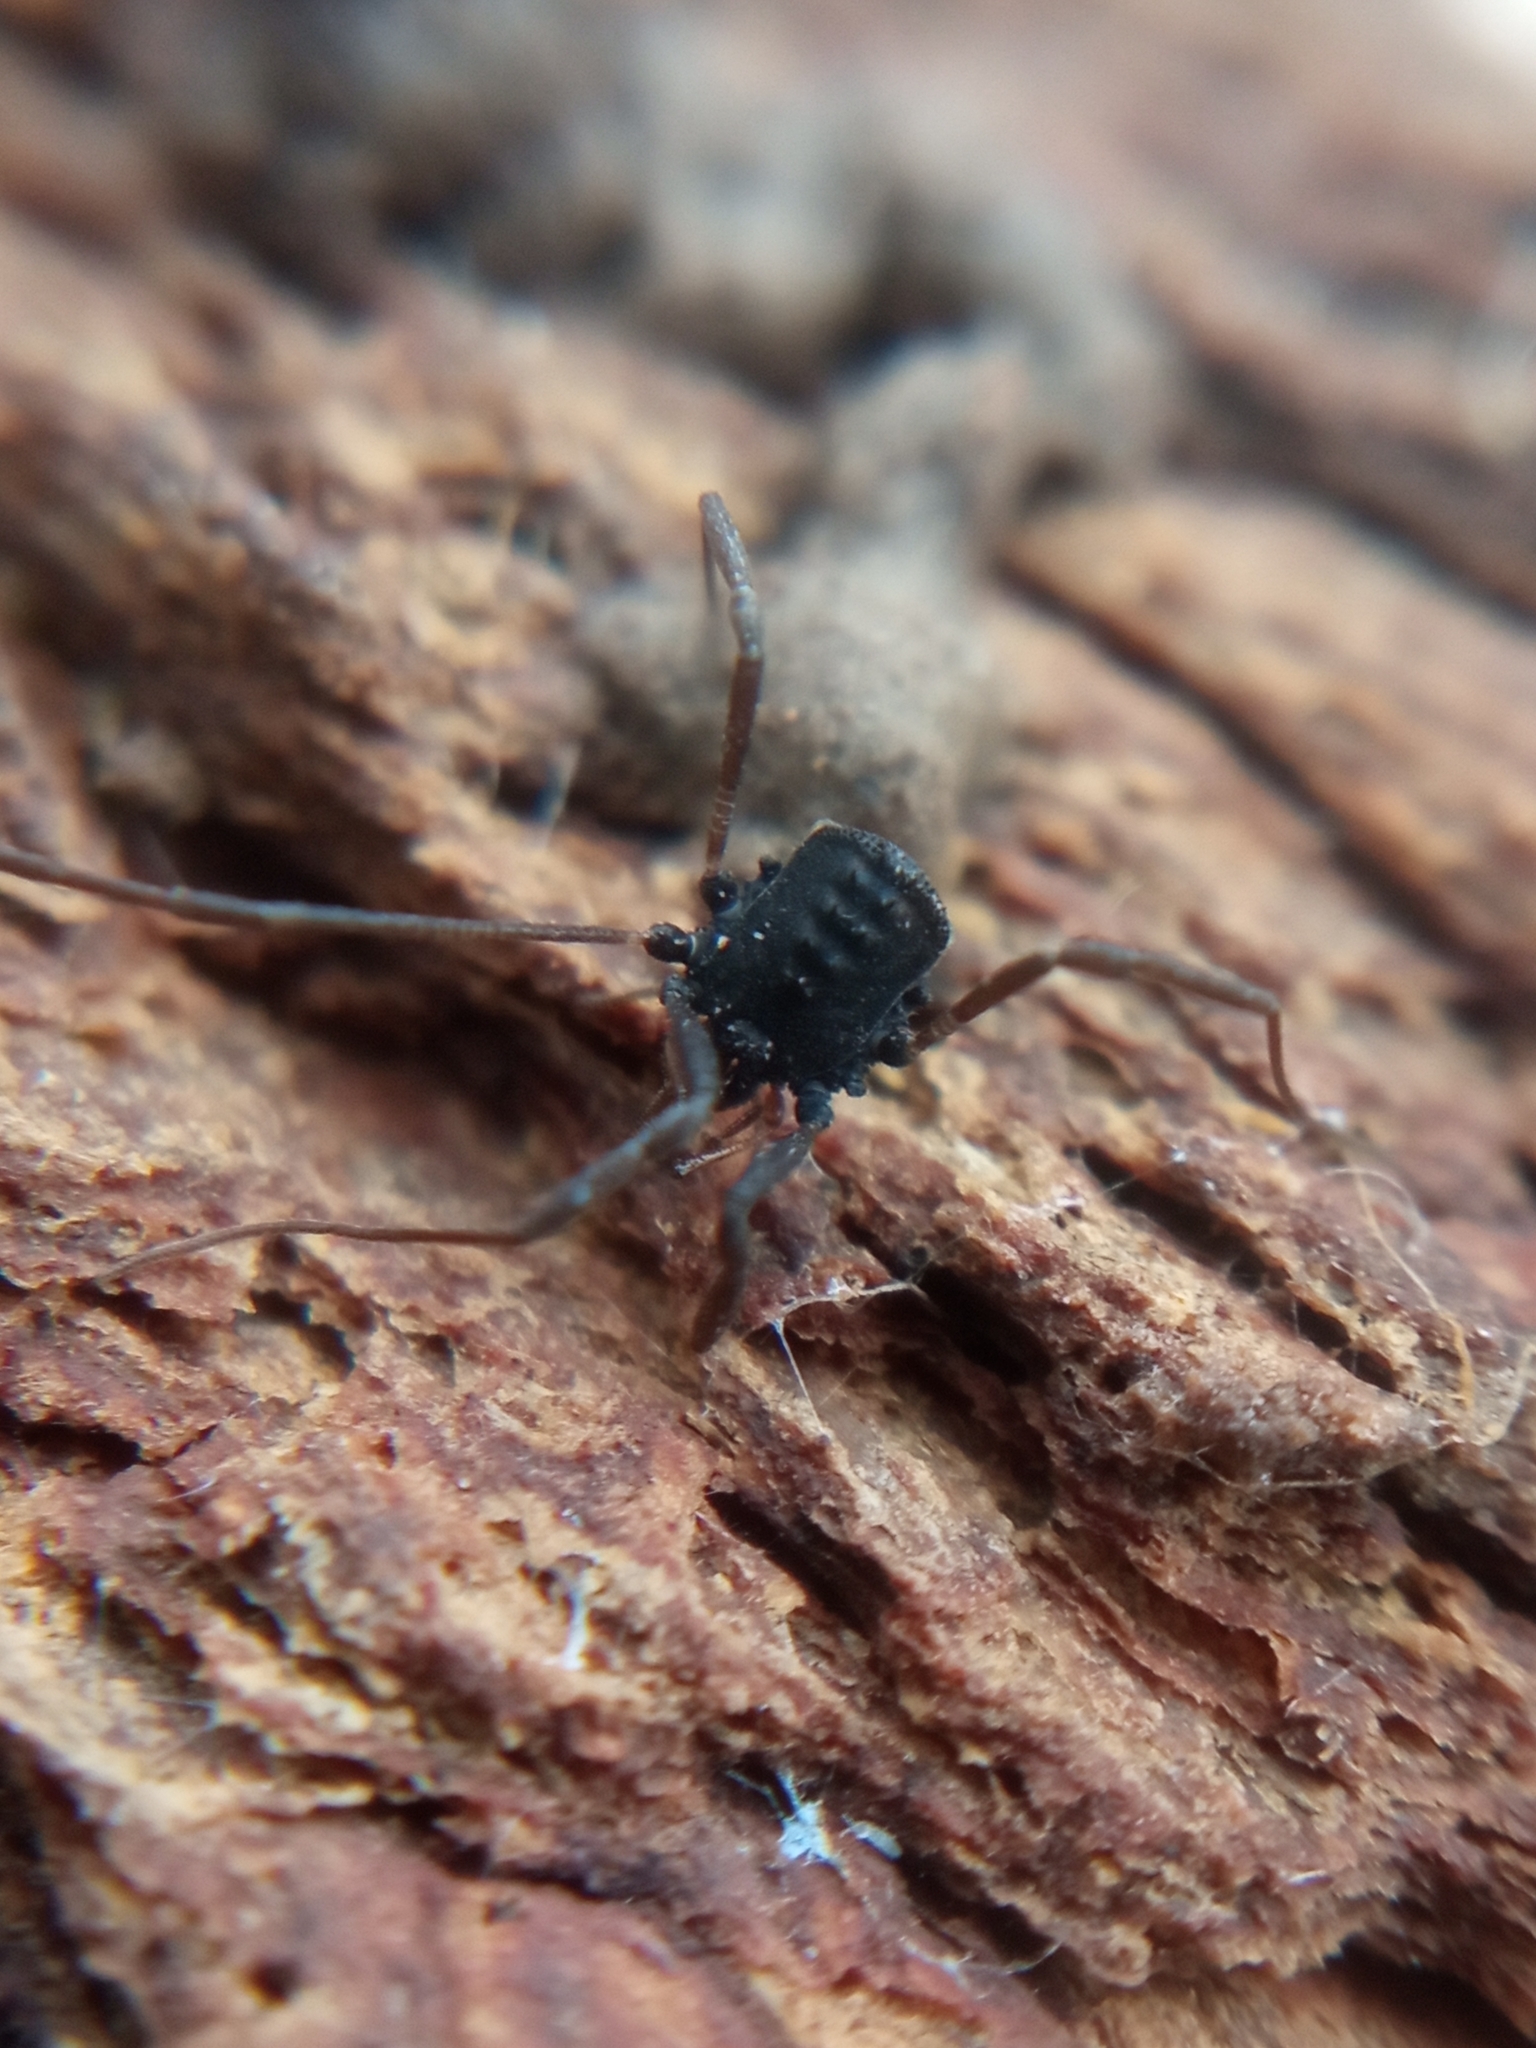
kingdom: Animalia
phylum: Arthropoda
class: Arachnida
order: Opiliones
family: Nemastomatidae
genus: Histricostoma
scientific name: Histricostoma dentipalpe
